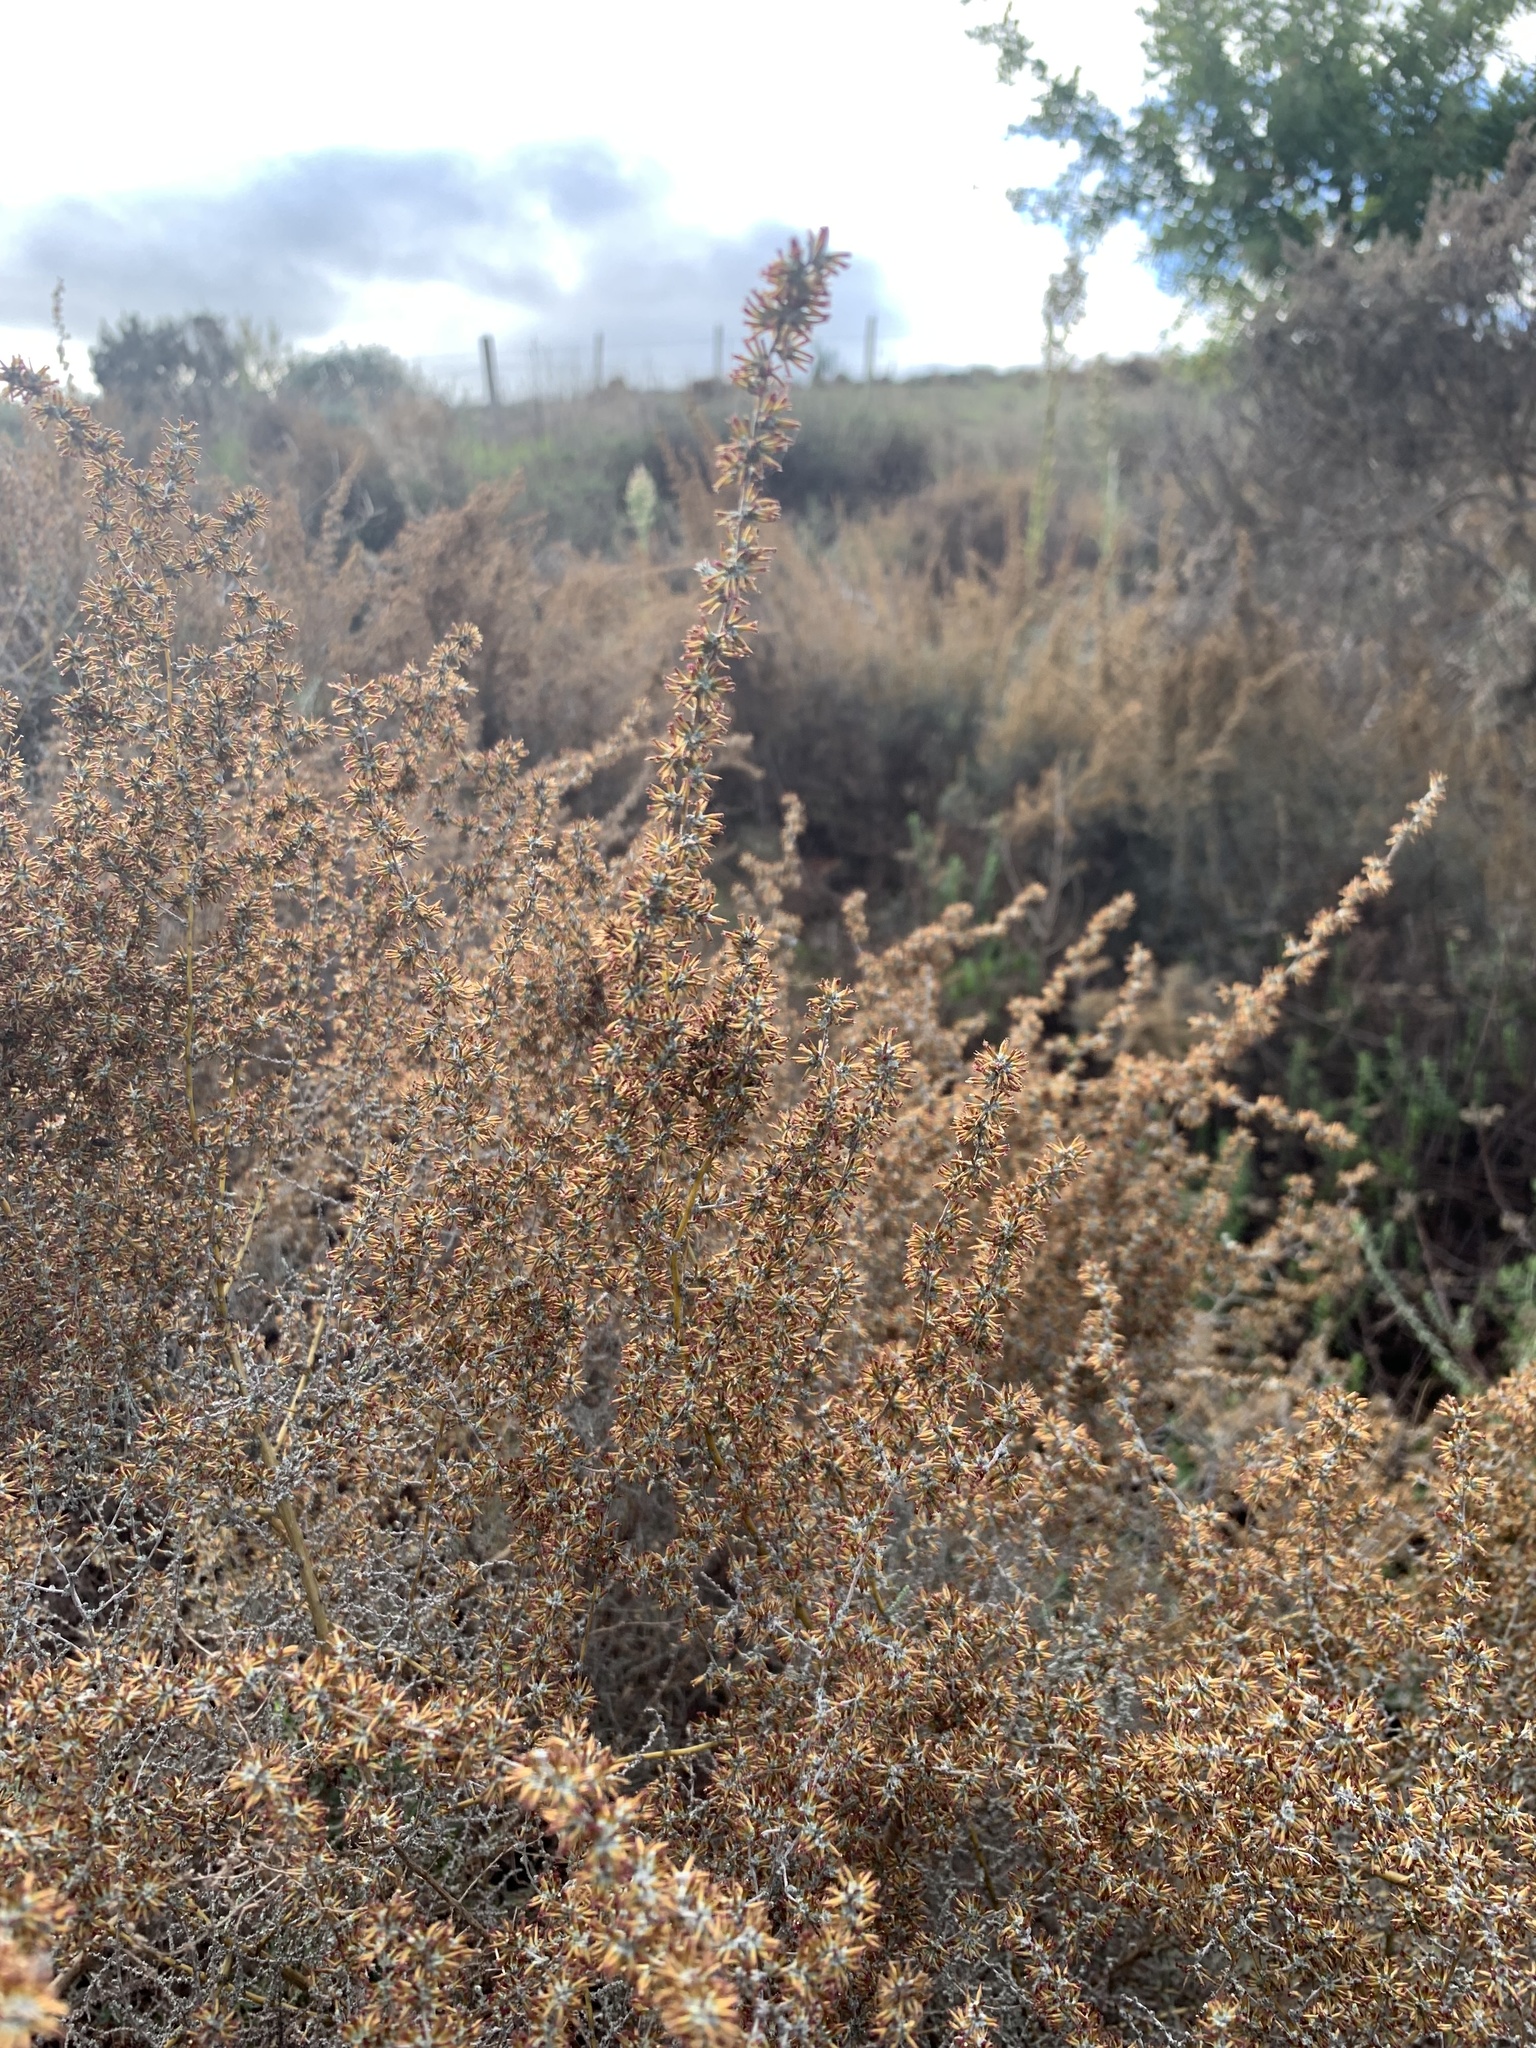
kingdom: Plantae
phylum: Tracheophyta
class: Magnoliopsida
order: Asterales
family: Asteraceae
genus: Seriphium
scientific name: Seriphium plumosum
